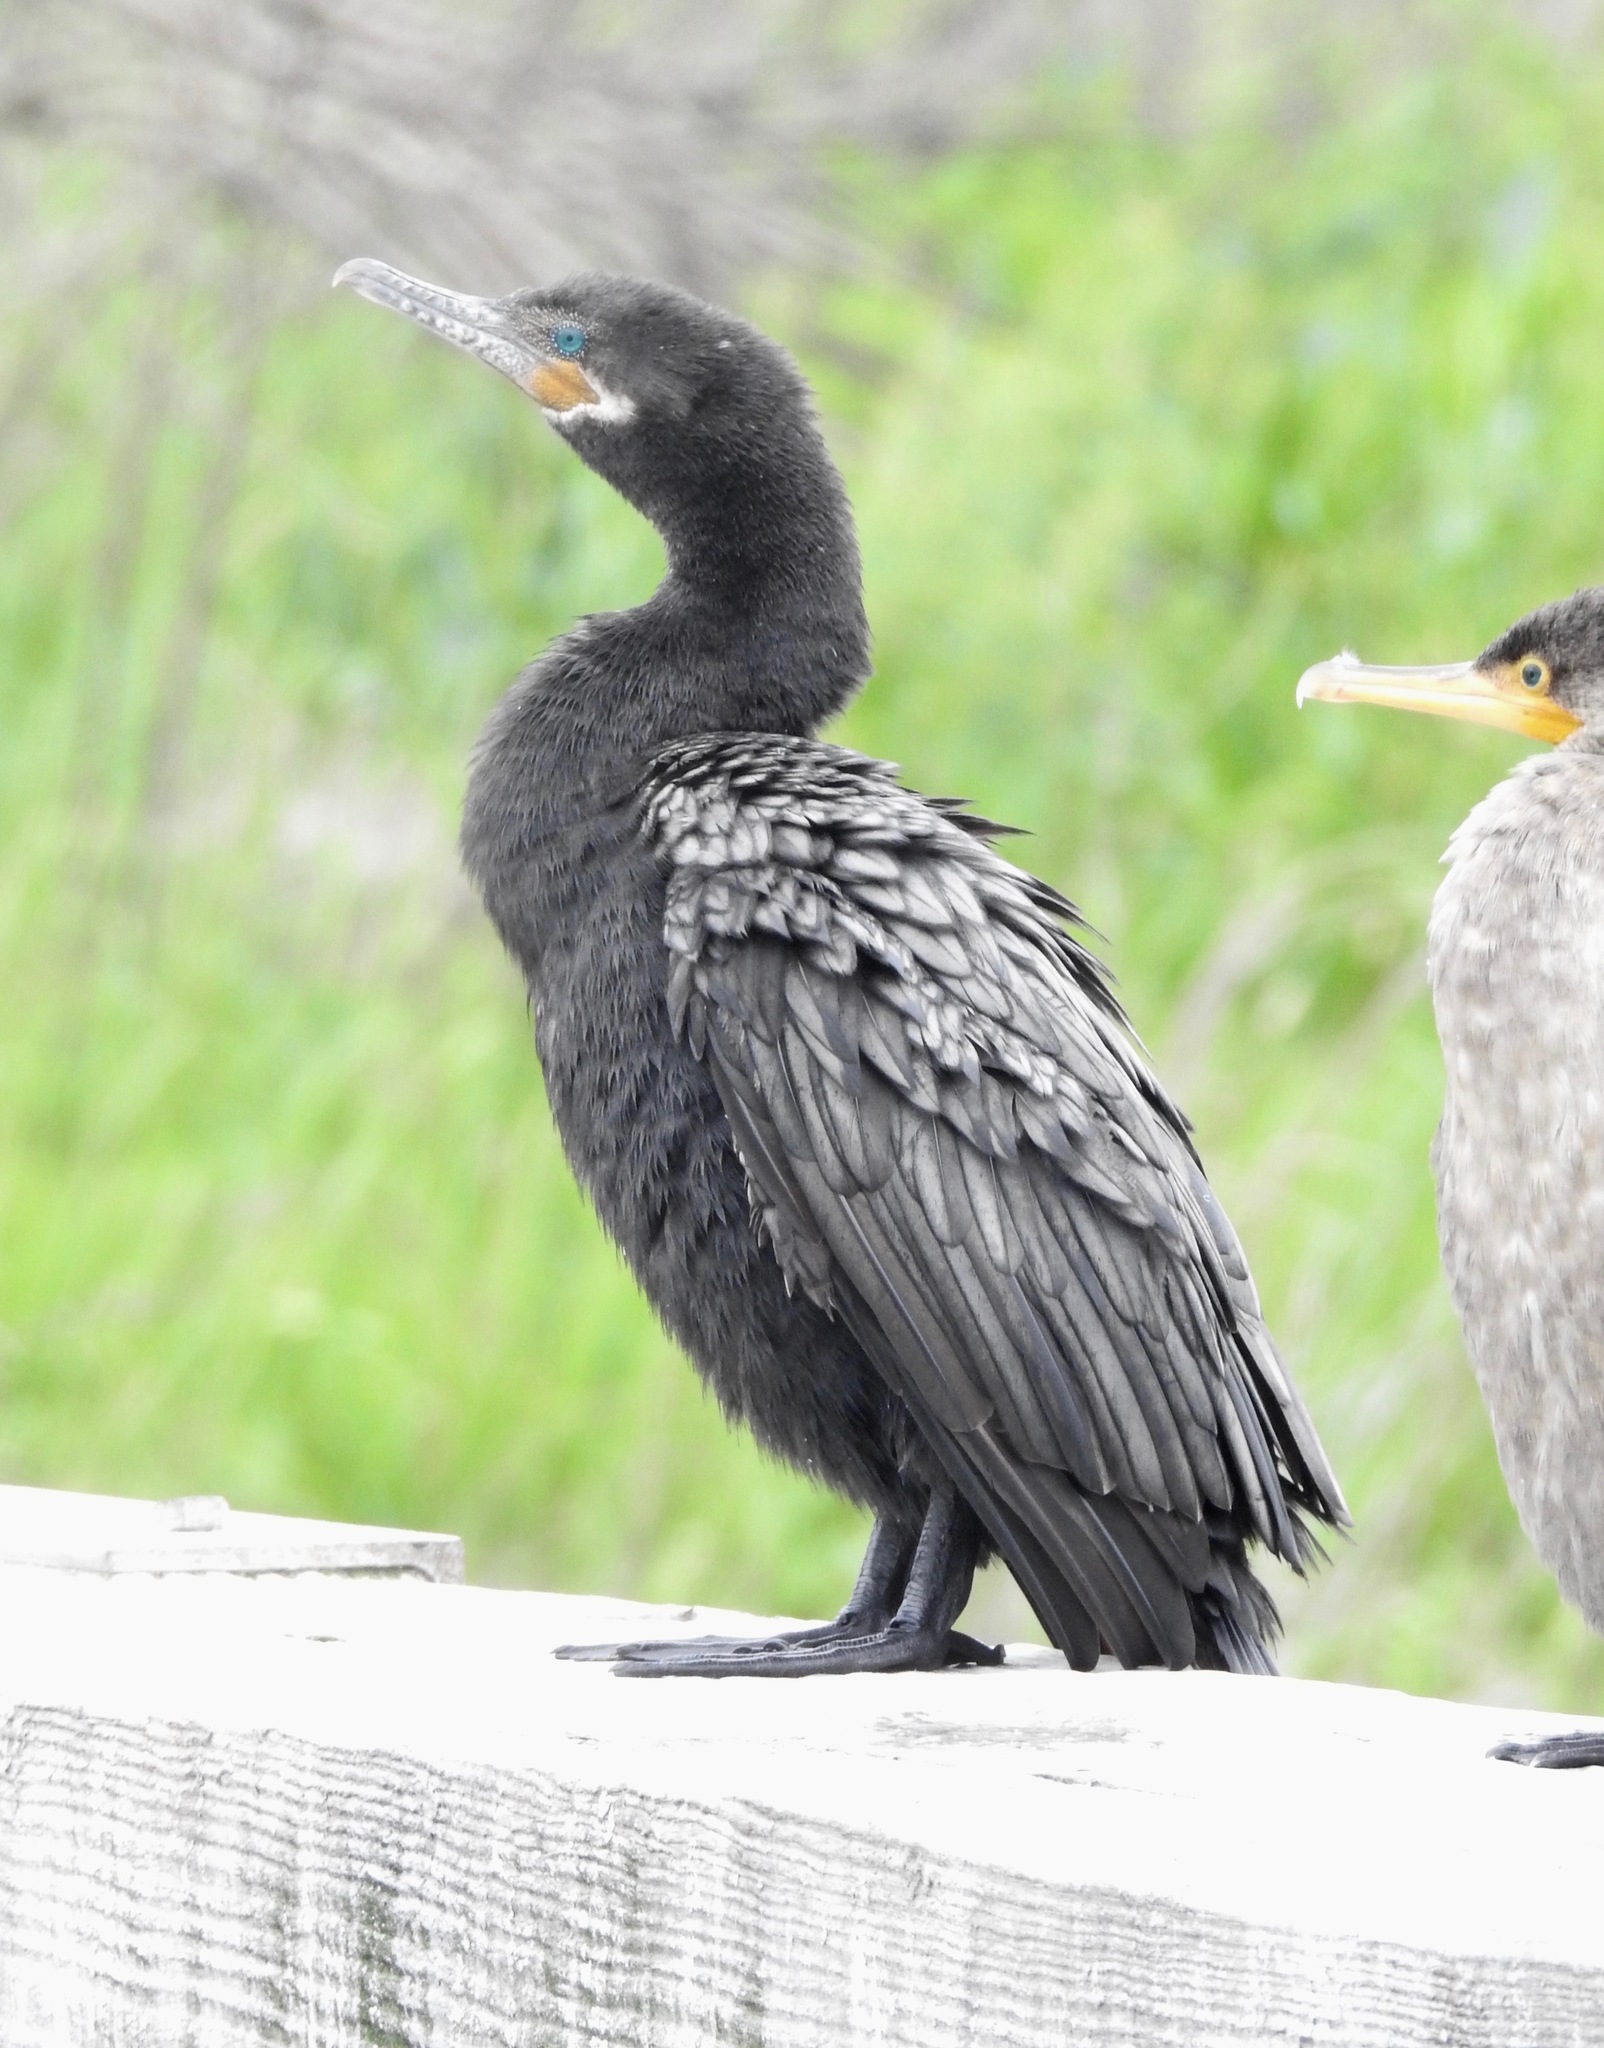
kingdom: Animalia
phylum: Chordata
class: Aves
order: Suliformes
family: Phalacrocoracidae
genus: Phalacrocorax
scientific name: Phalacrocorax brasilianus
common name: Neotropic cormorant
